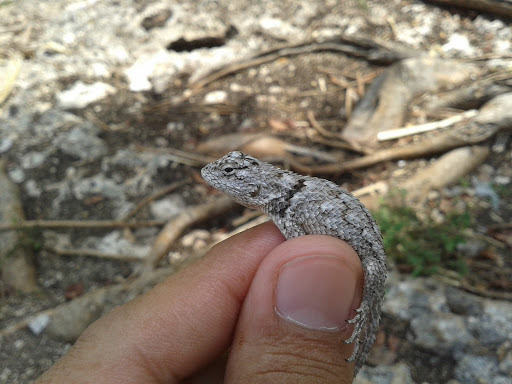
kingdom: Animalia
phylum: Chordata
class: Squamata
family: Phrynosomatidae
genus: Sceloporus
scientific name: Sceloporus lundelli
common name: Lundell's spiny lizard
